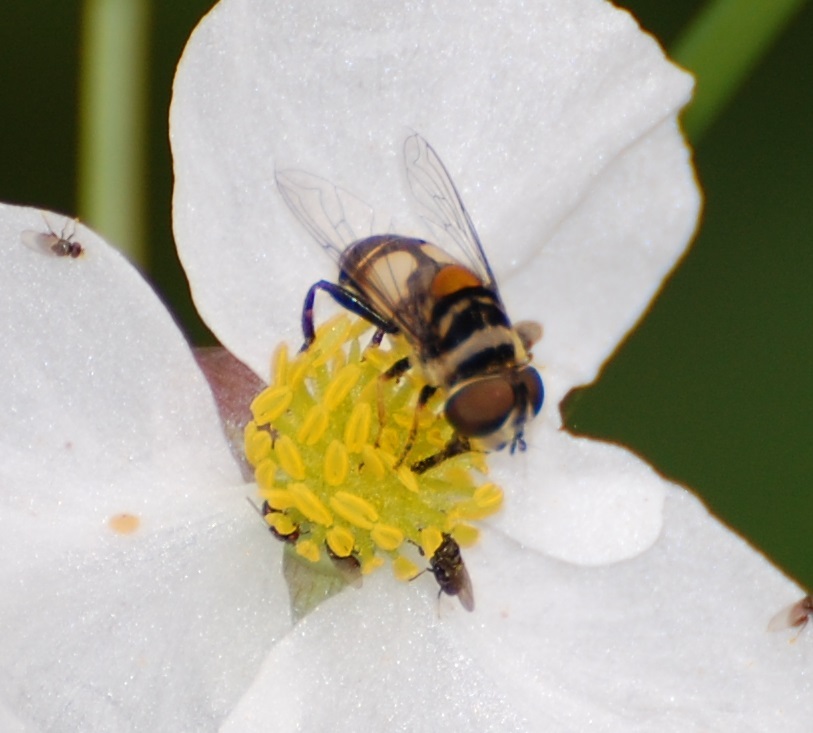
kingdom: Animalia
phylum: Arthropoda
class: Insecta
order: Diptera
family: Syrphidae
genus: Palpada
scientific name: Palpada albifrons
